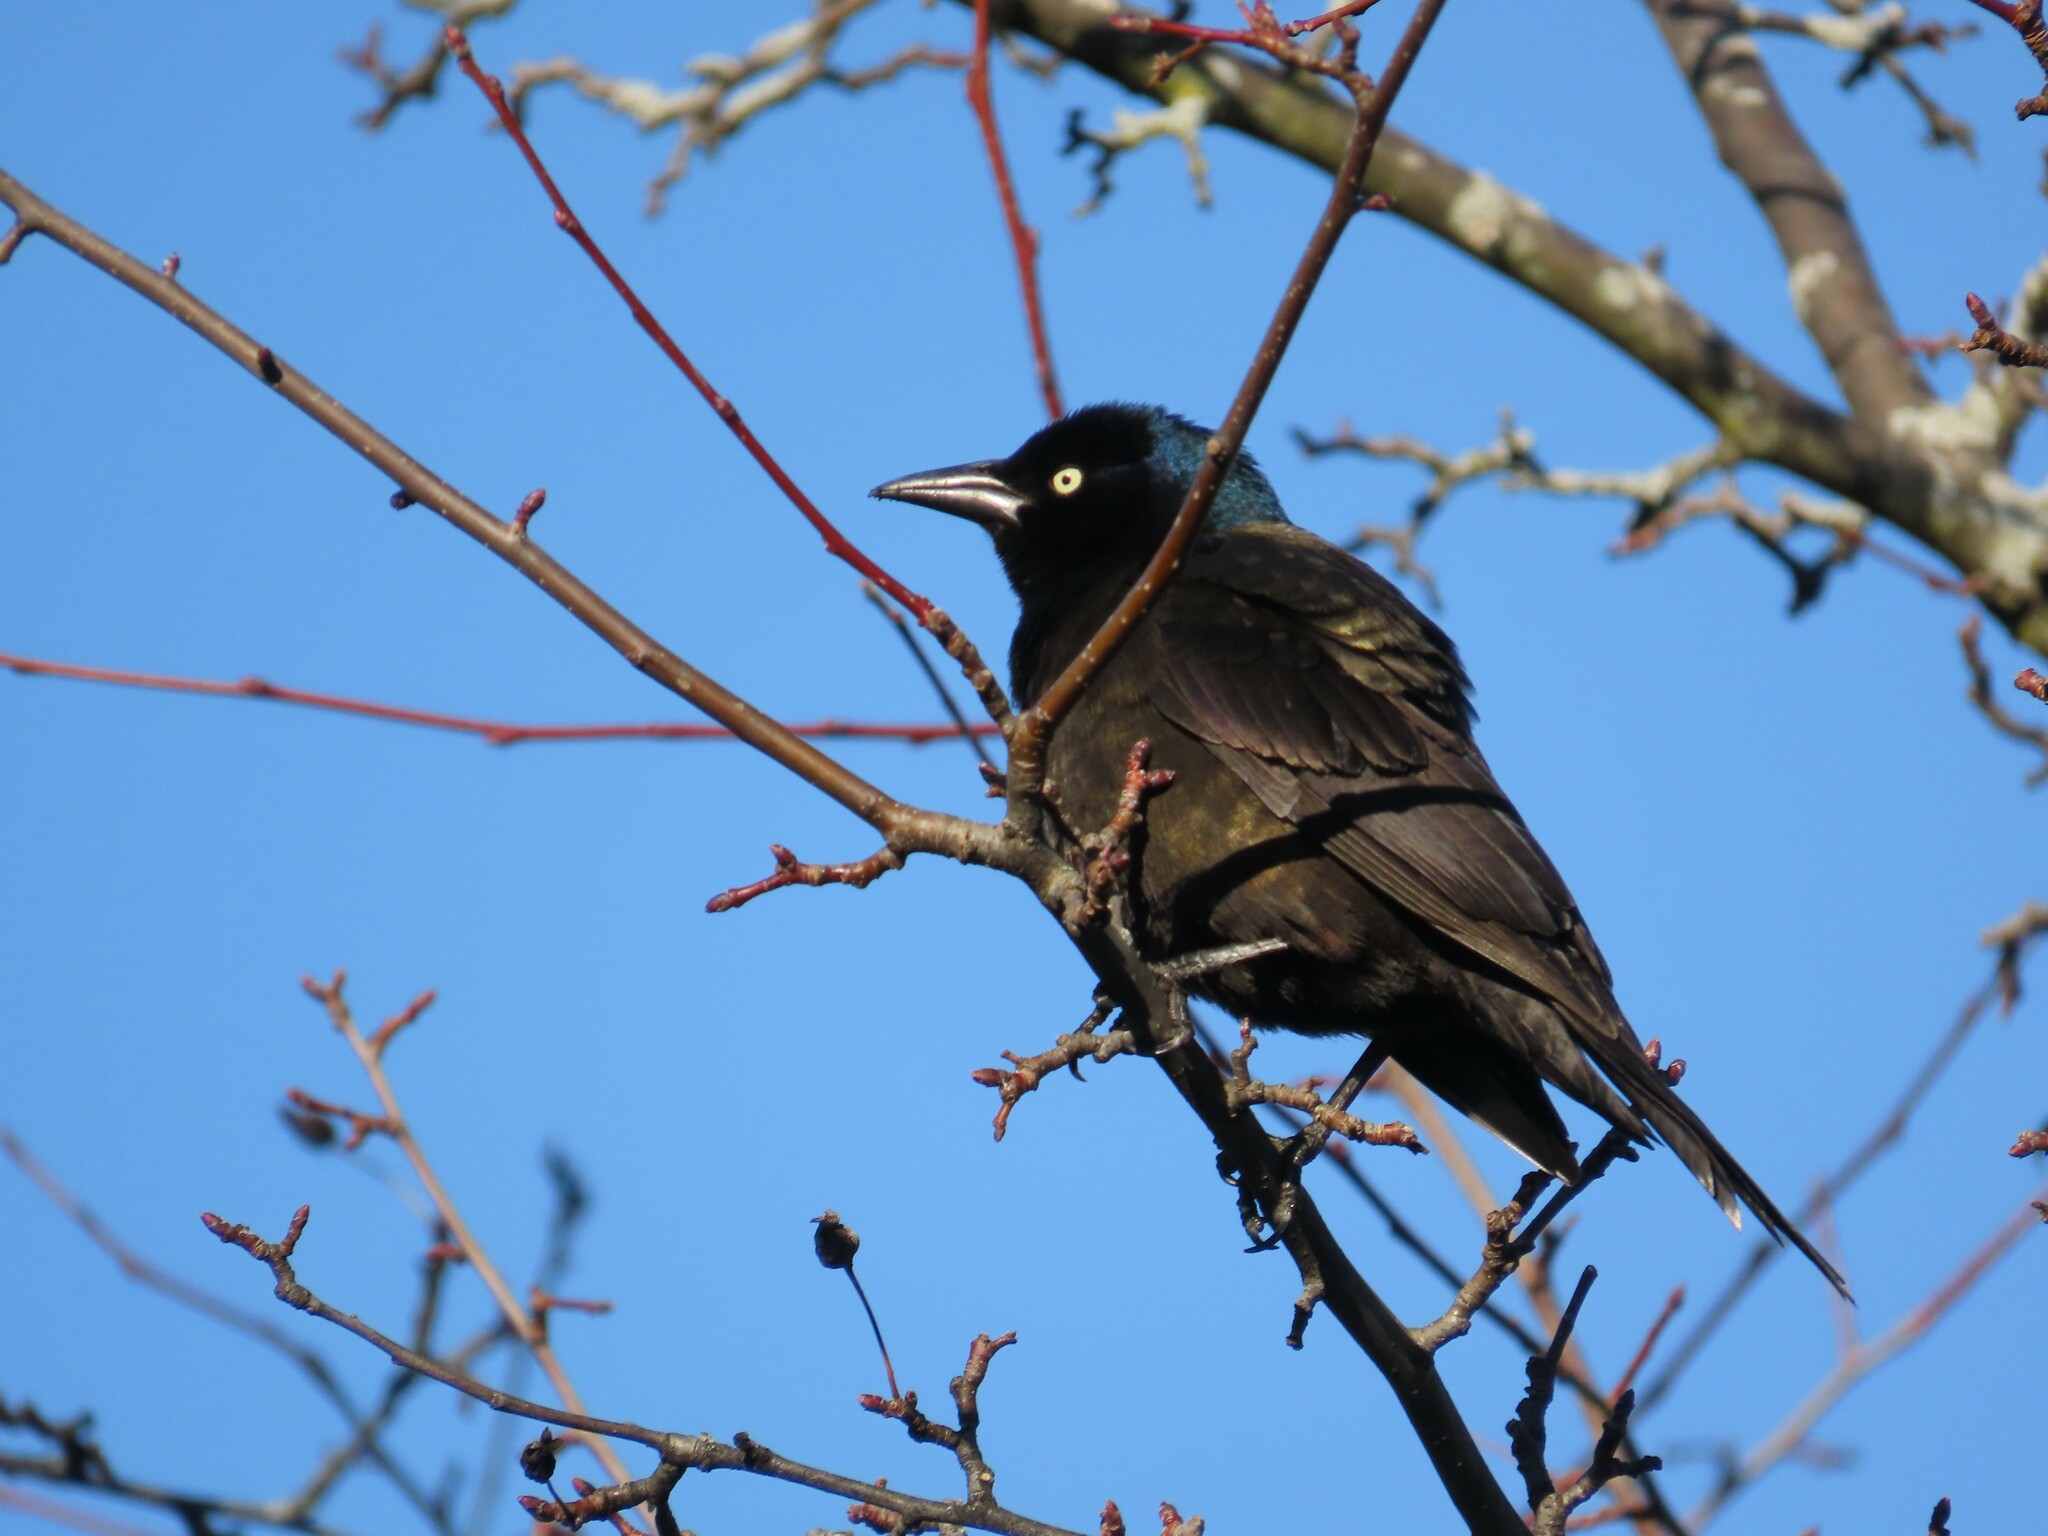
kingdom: Animalia
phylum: Chordata
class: Aves
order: Passeriformes
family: Icteridae
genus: Quiscalus
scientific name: Quiscalus quiscula
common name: Common grackle
